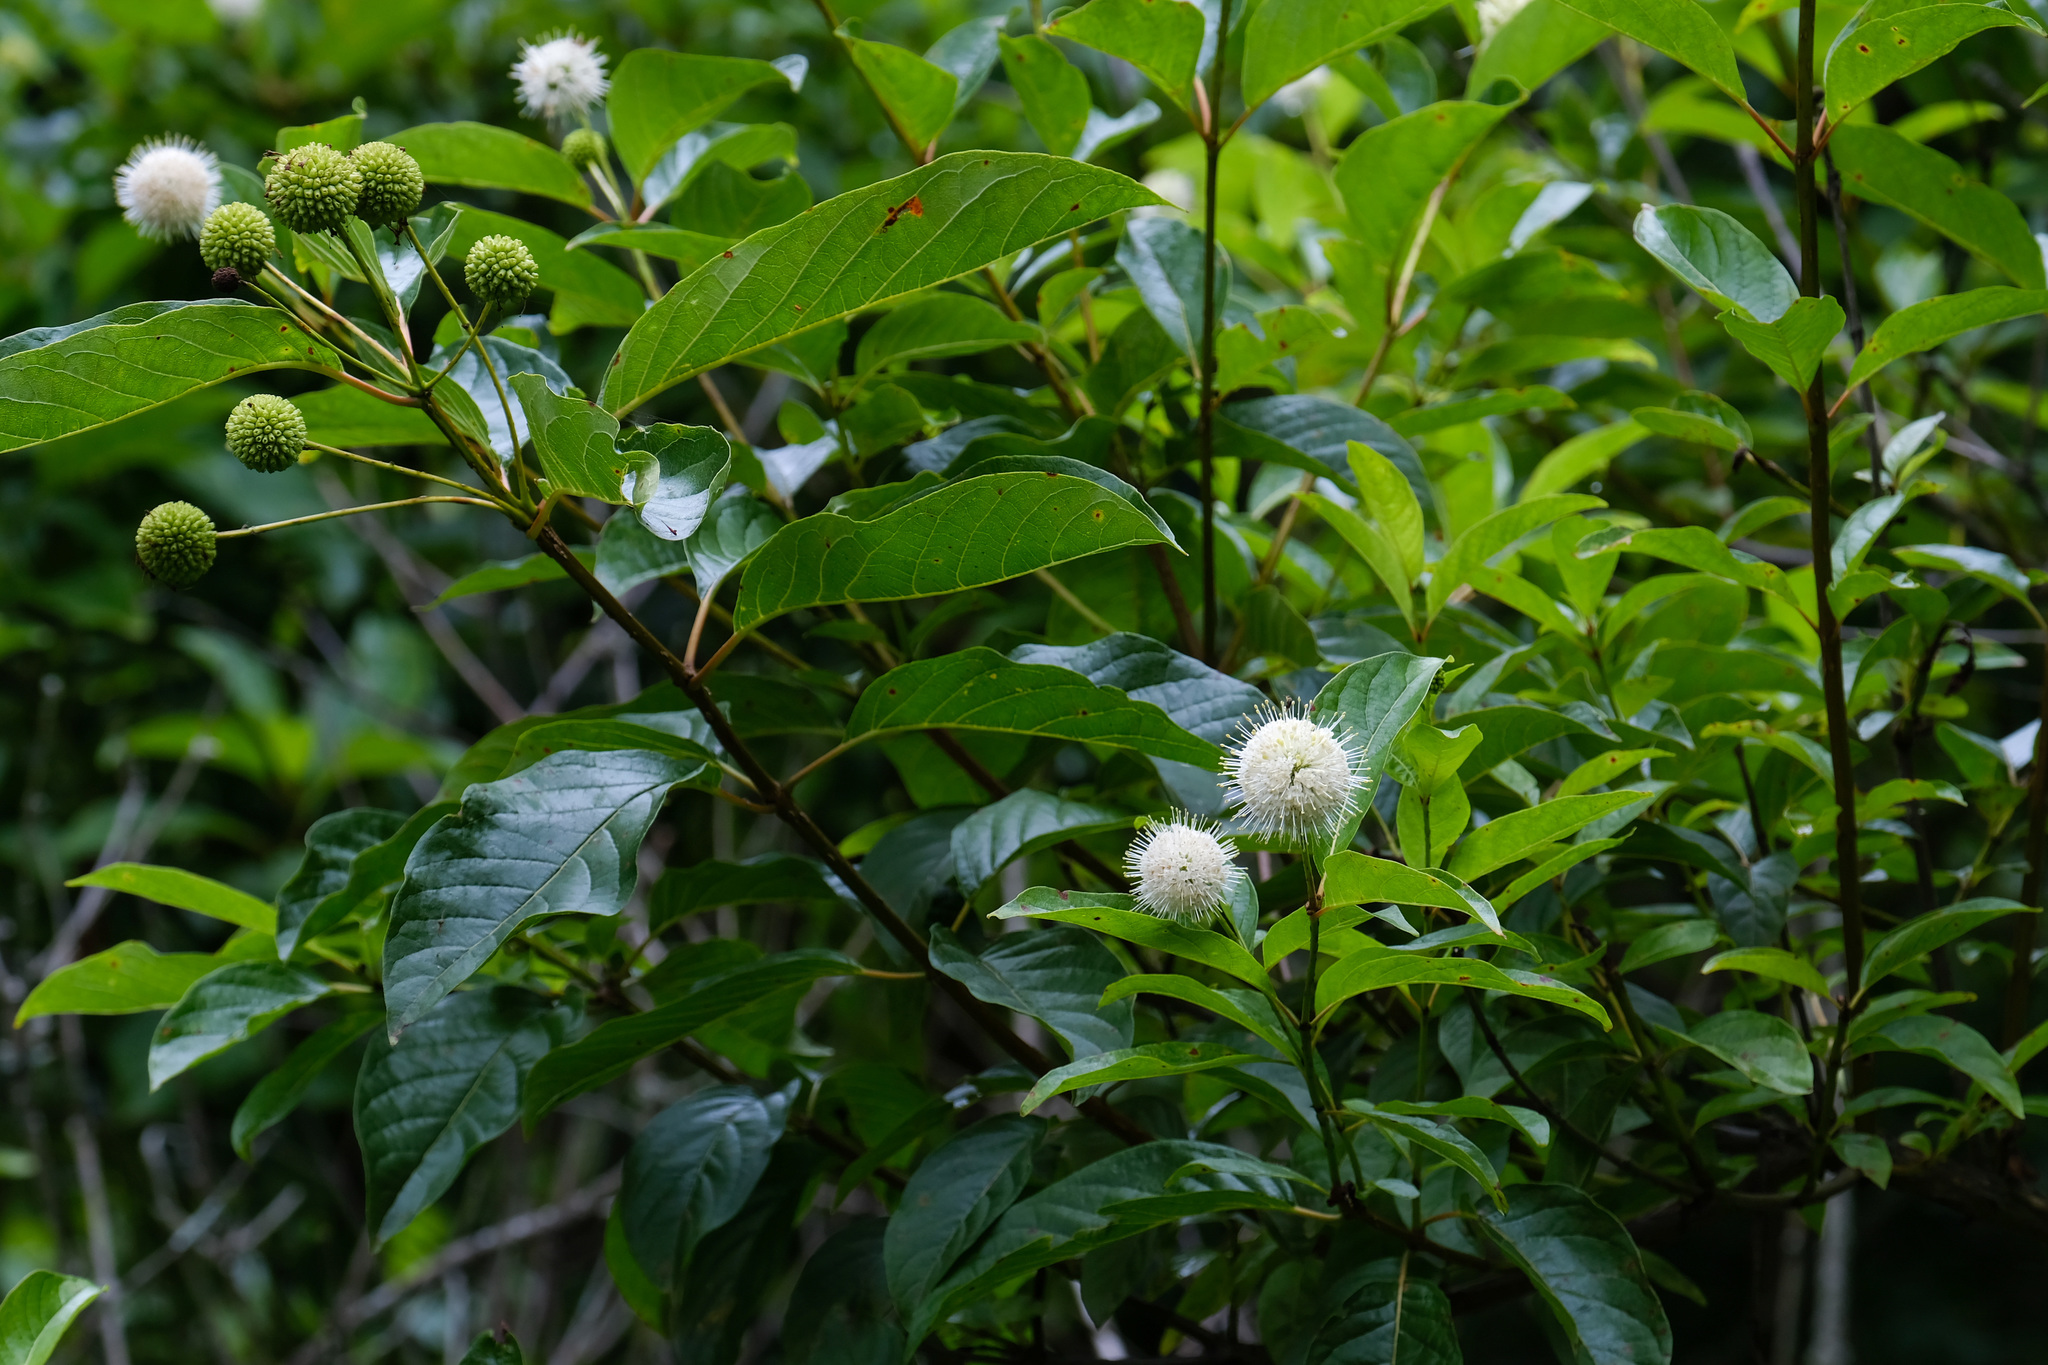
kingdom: Plantae
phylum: Tracheophyta
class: Magnoliopsida
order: Gentianales
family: Rubiaceae
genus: Cephalanthus
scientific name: Cephalanthus occidentalis
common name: Button-willow
